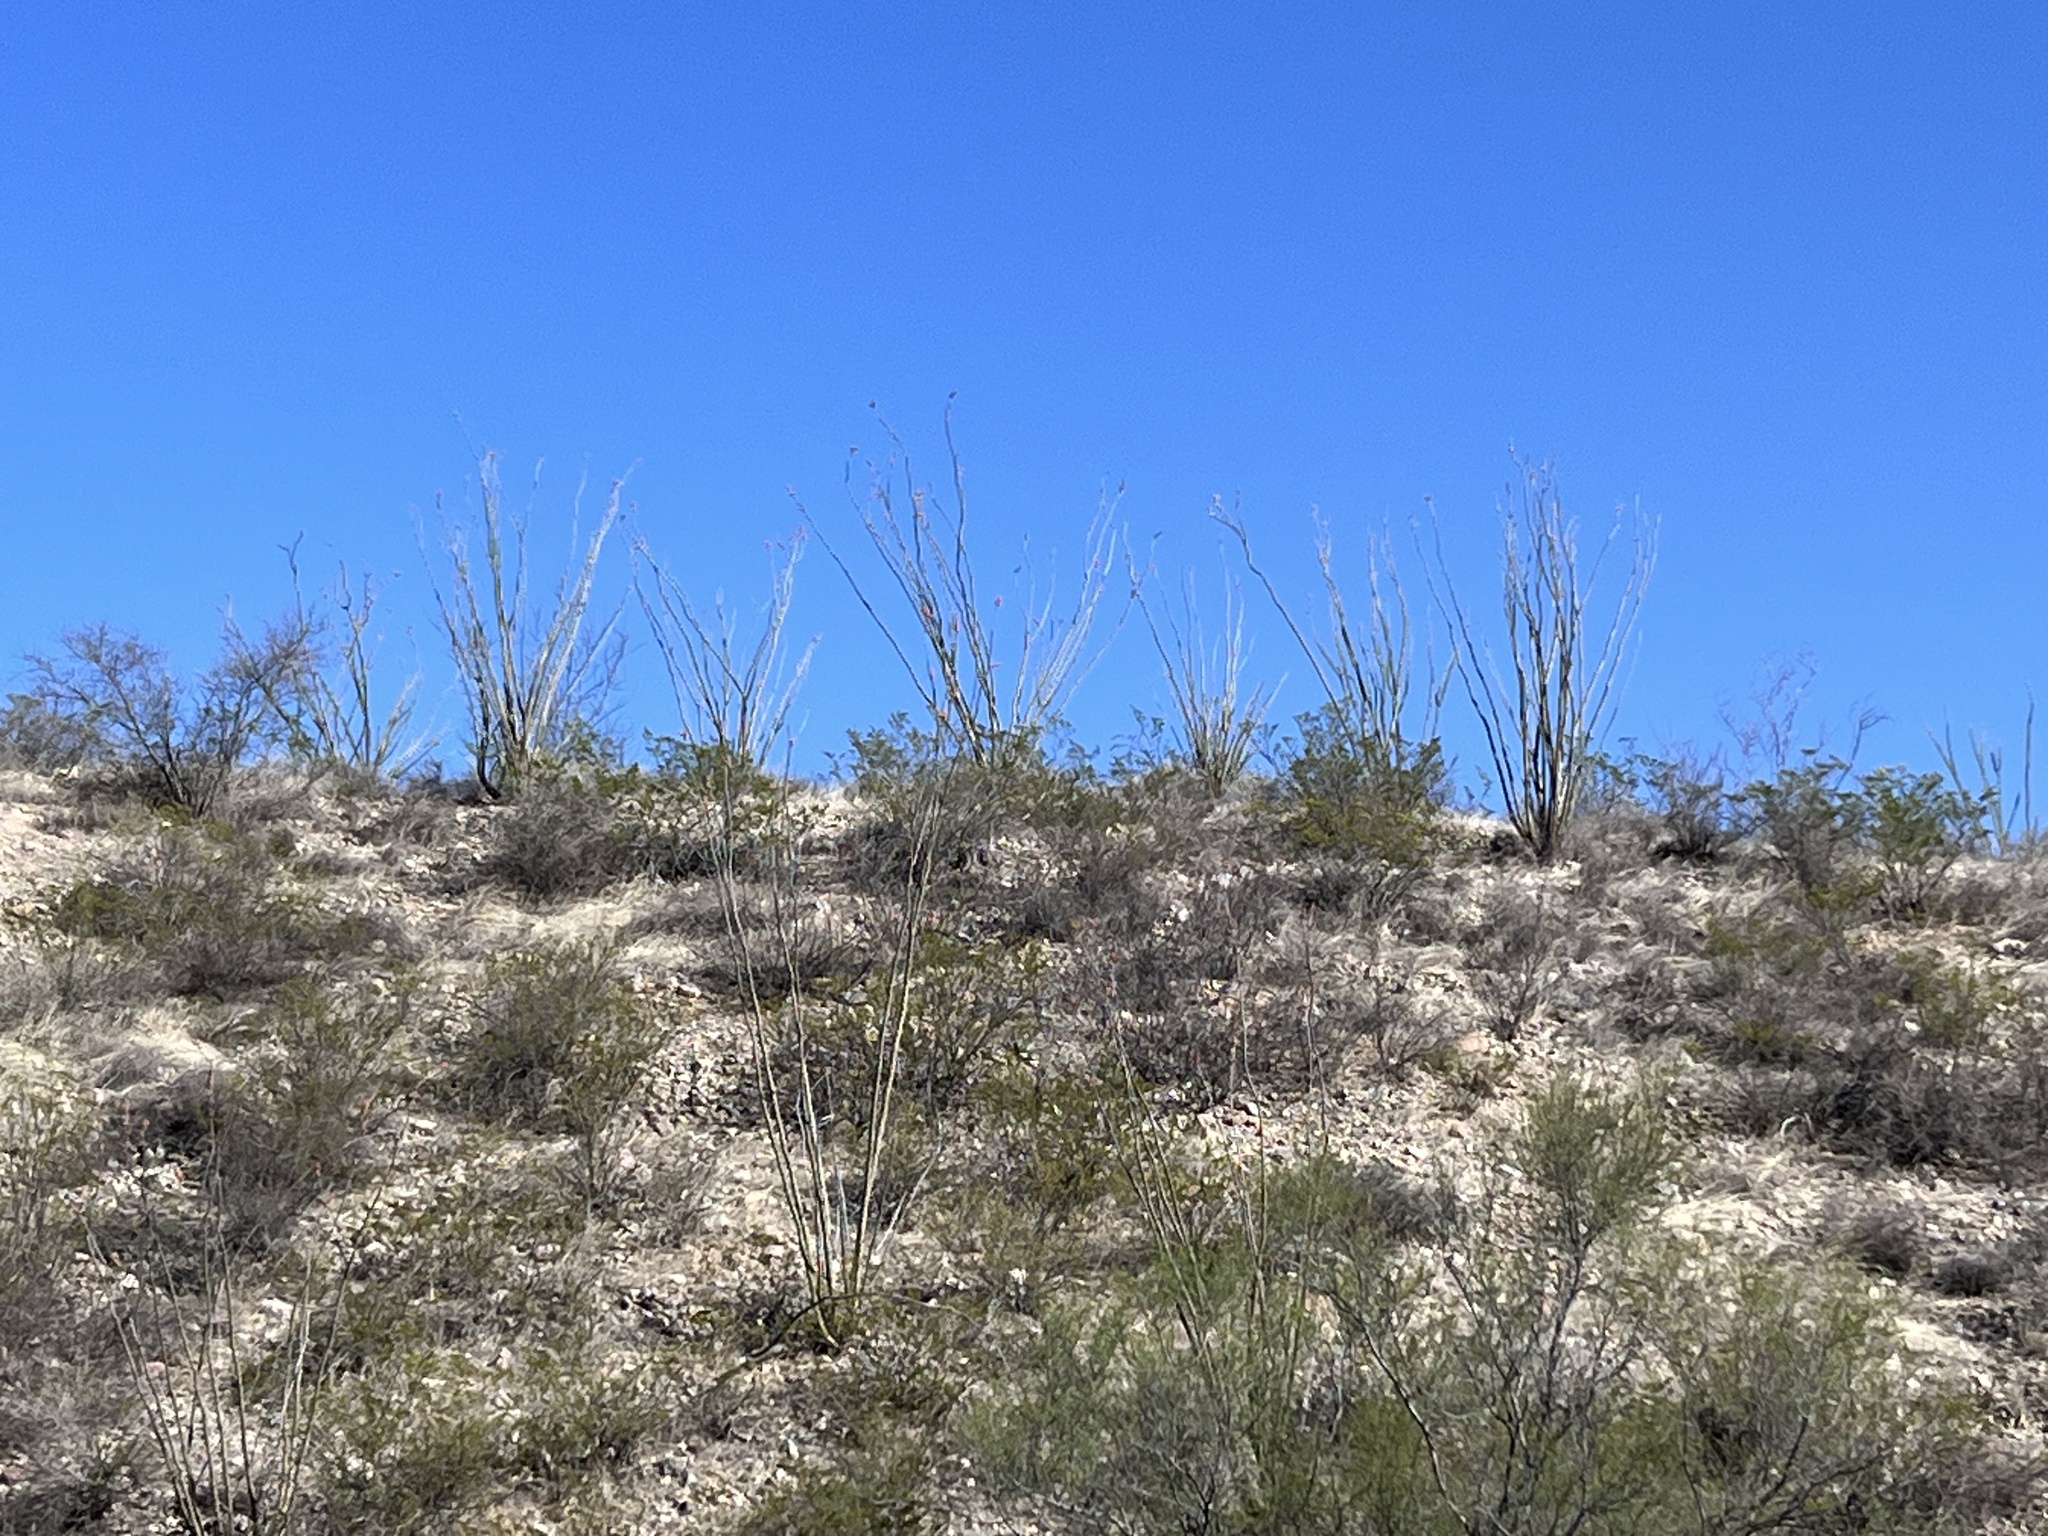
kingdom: Plantae
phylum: Tracheophyta
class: Magnoliopsida
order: Ericales
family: Fouquieriaceae
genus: Fouquieria
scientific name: Fouquieria splendens
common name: Vine-cactus
